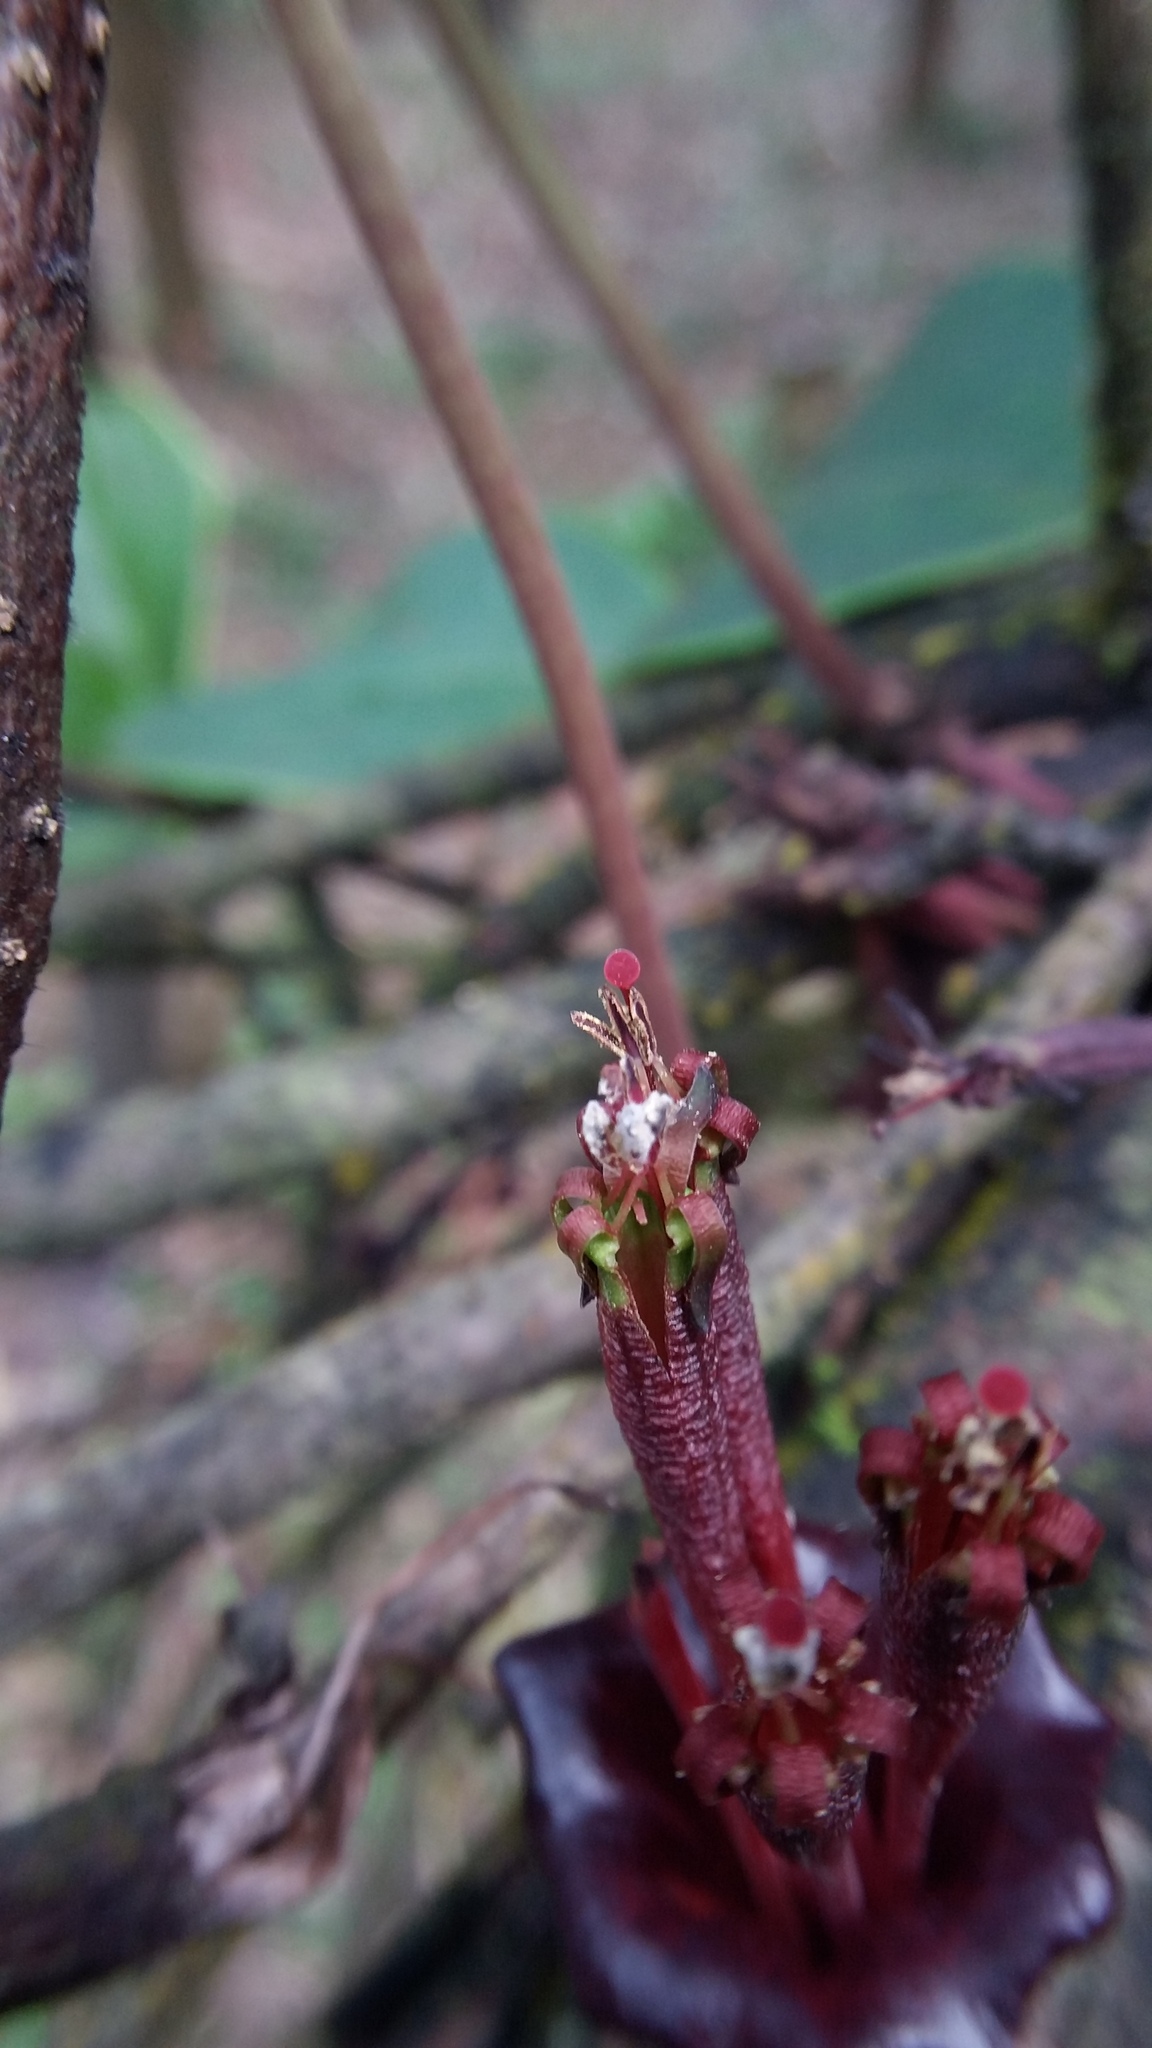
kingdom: Plantae
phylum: Tracheophyta
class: Magnoliopsida
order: Santalales
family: Loranthaceae
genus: Tolypanthus
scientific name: Tolypanthus lagenifer
